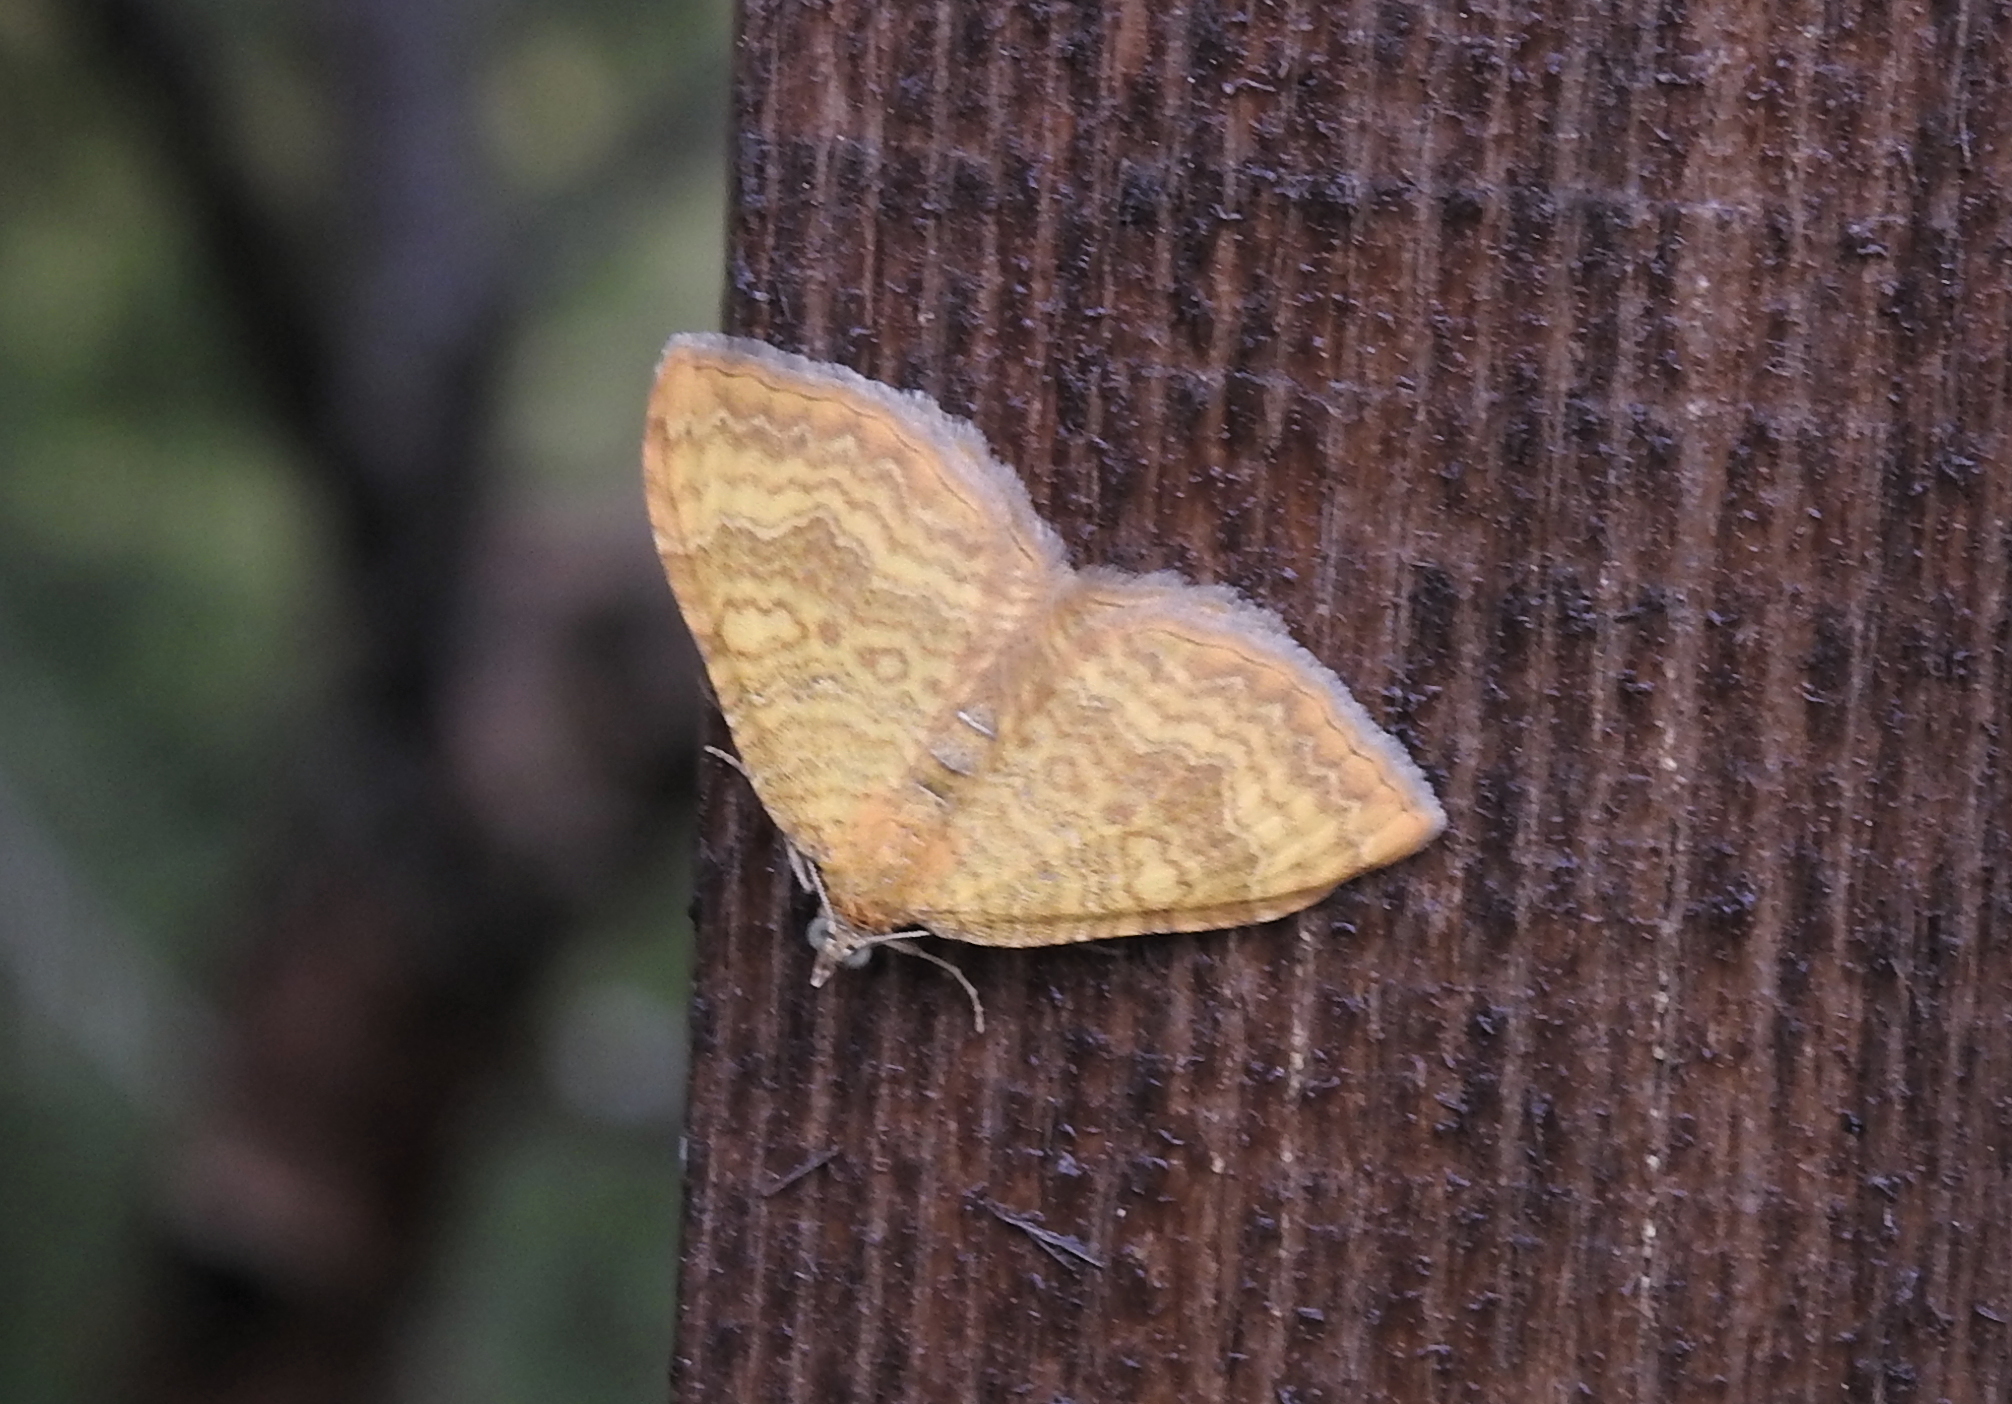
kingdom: Animalia
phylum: Arthropoda
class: Insecta
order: Lepidoptera
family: Geometridae
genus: Camptogramma
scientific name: Camptogramma bilineata
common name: Yellow shell
